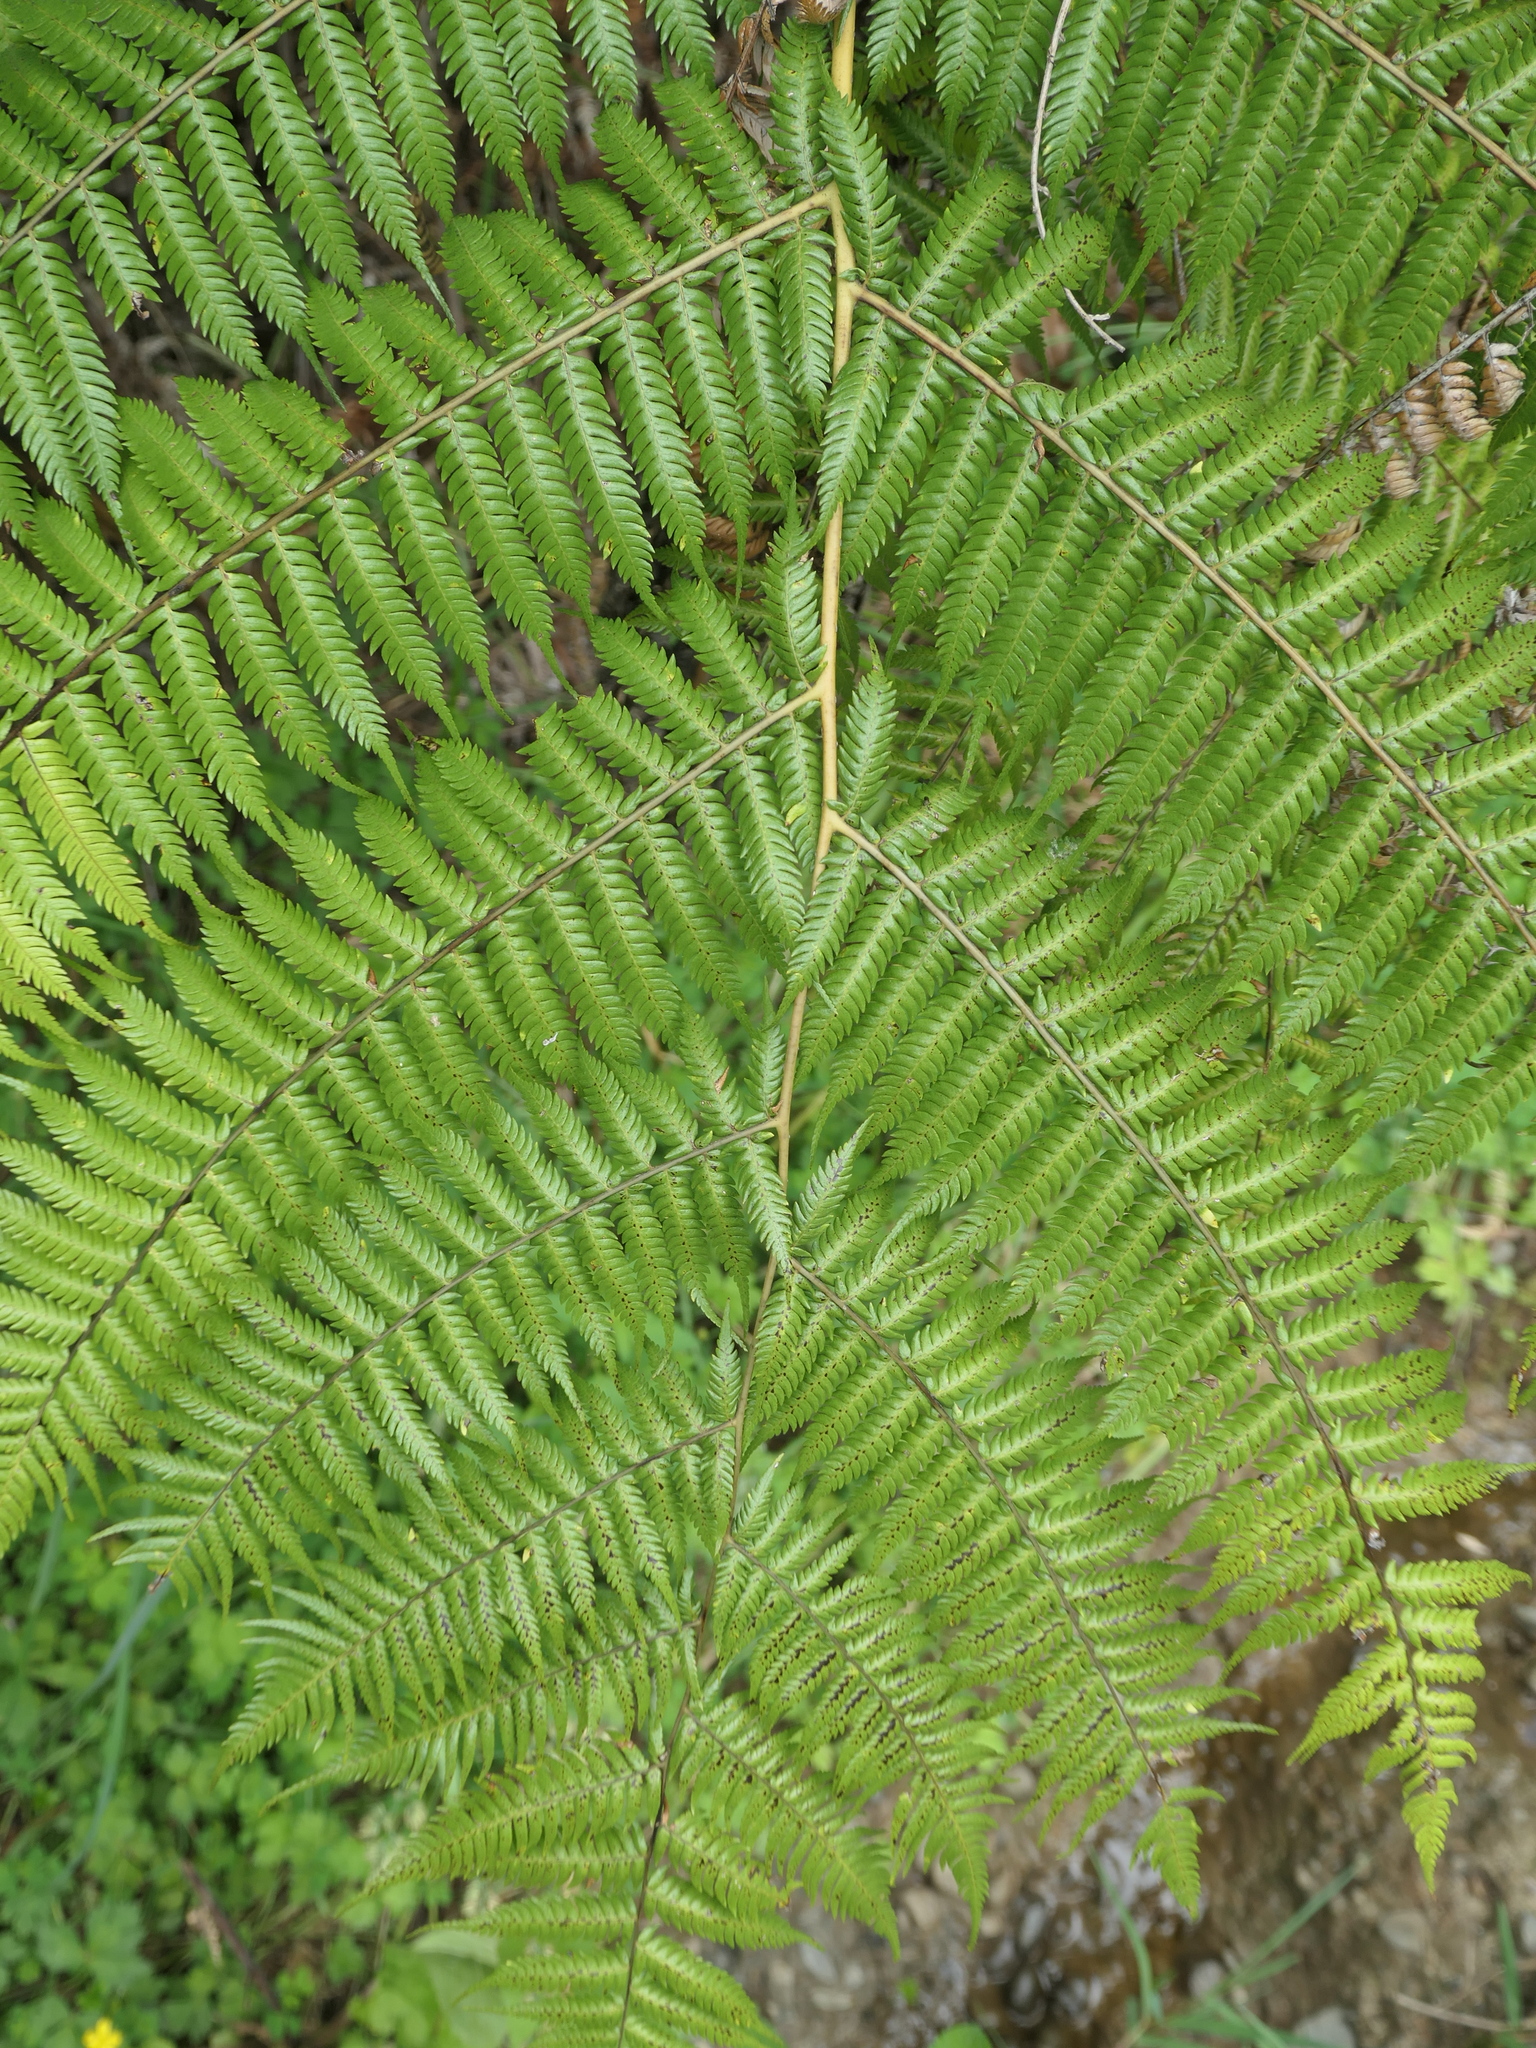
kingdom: Plantae
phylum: Tracheophyta
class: Polypodiopsida
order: Cyatheales
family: Cyatheaceae
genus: Alsophila
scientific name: Alsophila dealbata
